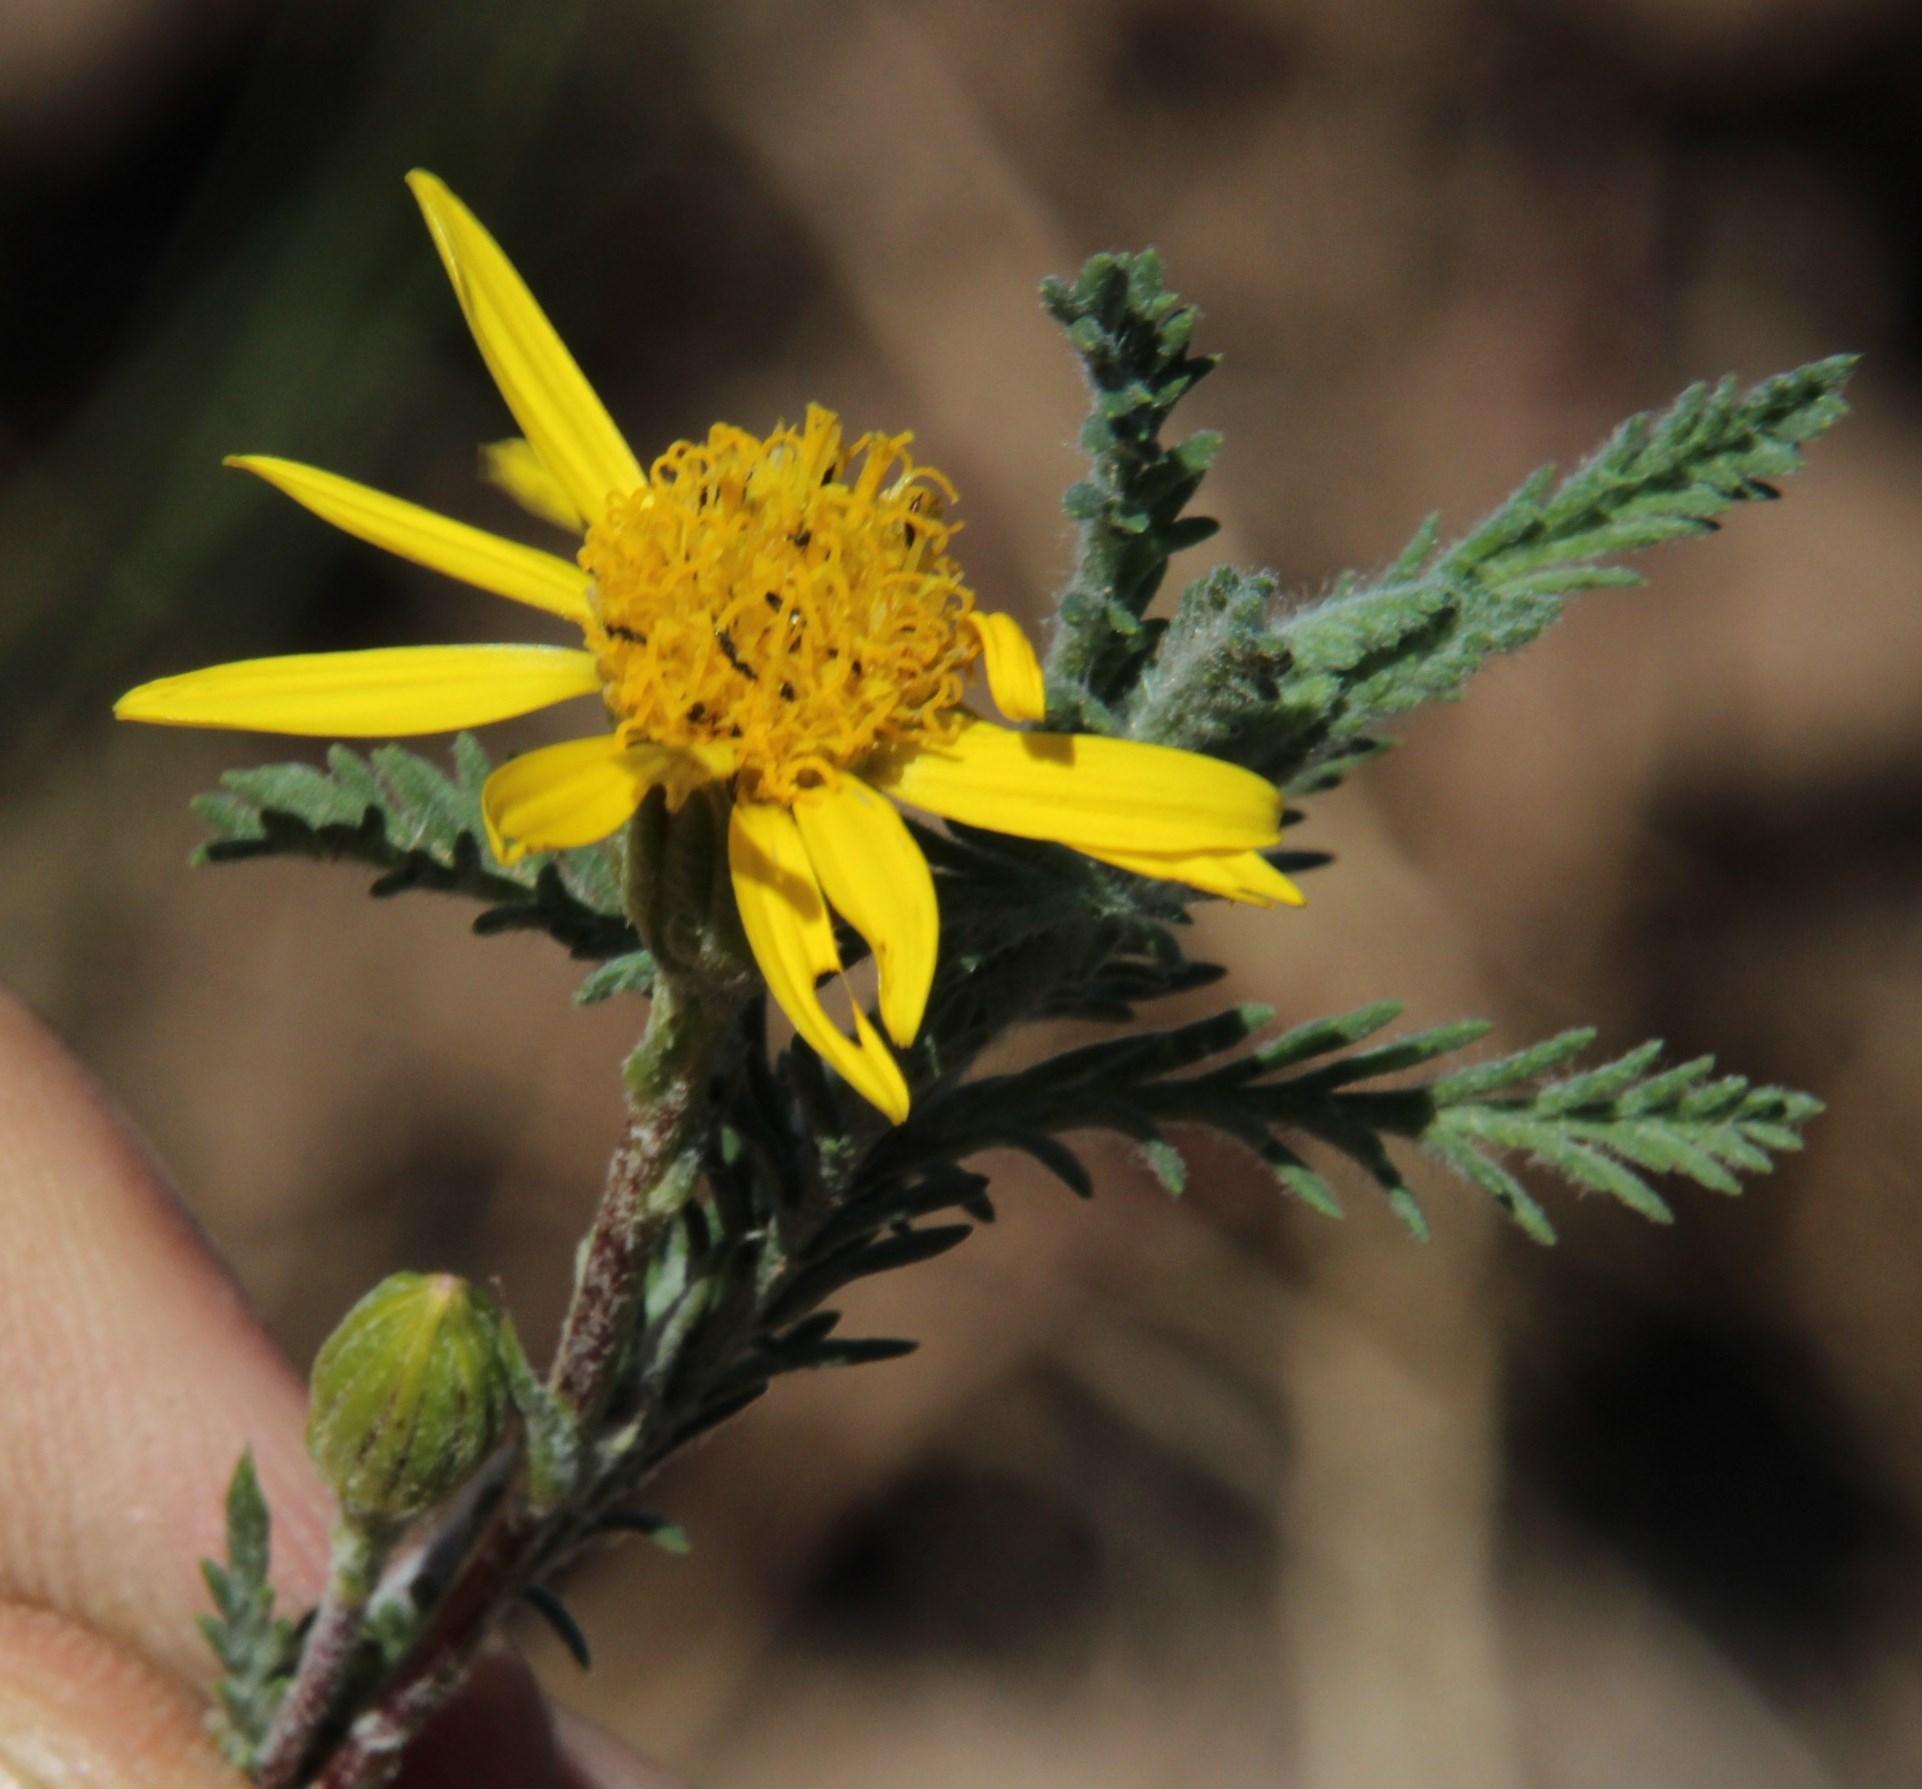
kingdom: Plantae
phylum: Tracheophyta
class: Magnoliopsida
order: Asterales
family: Asteraceae
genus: Senecio
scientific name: Senecio achilleifolius
